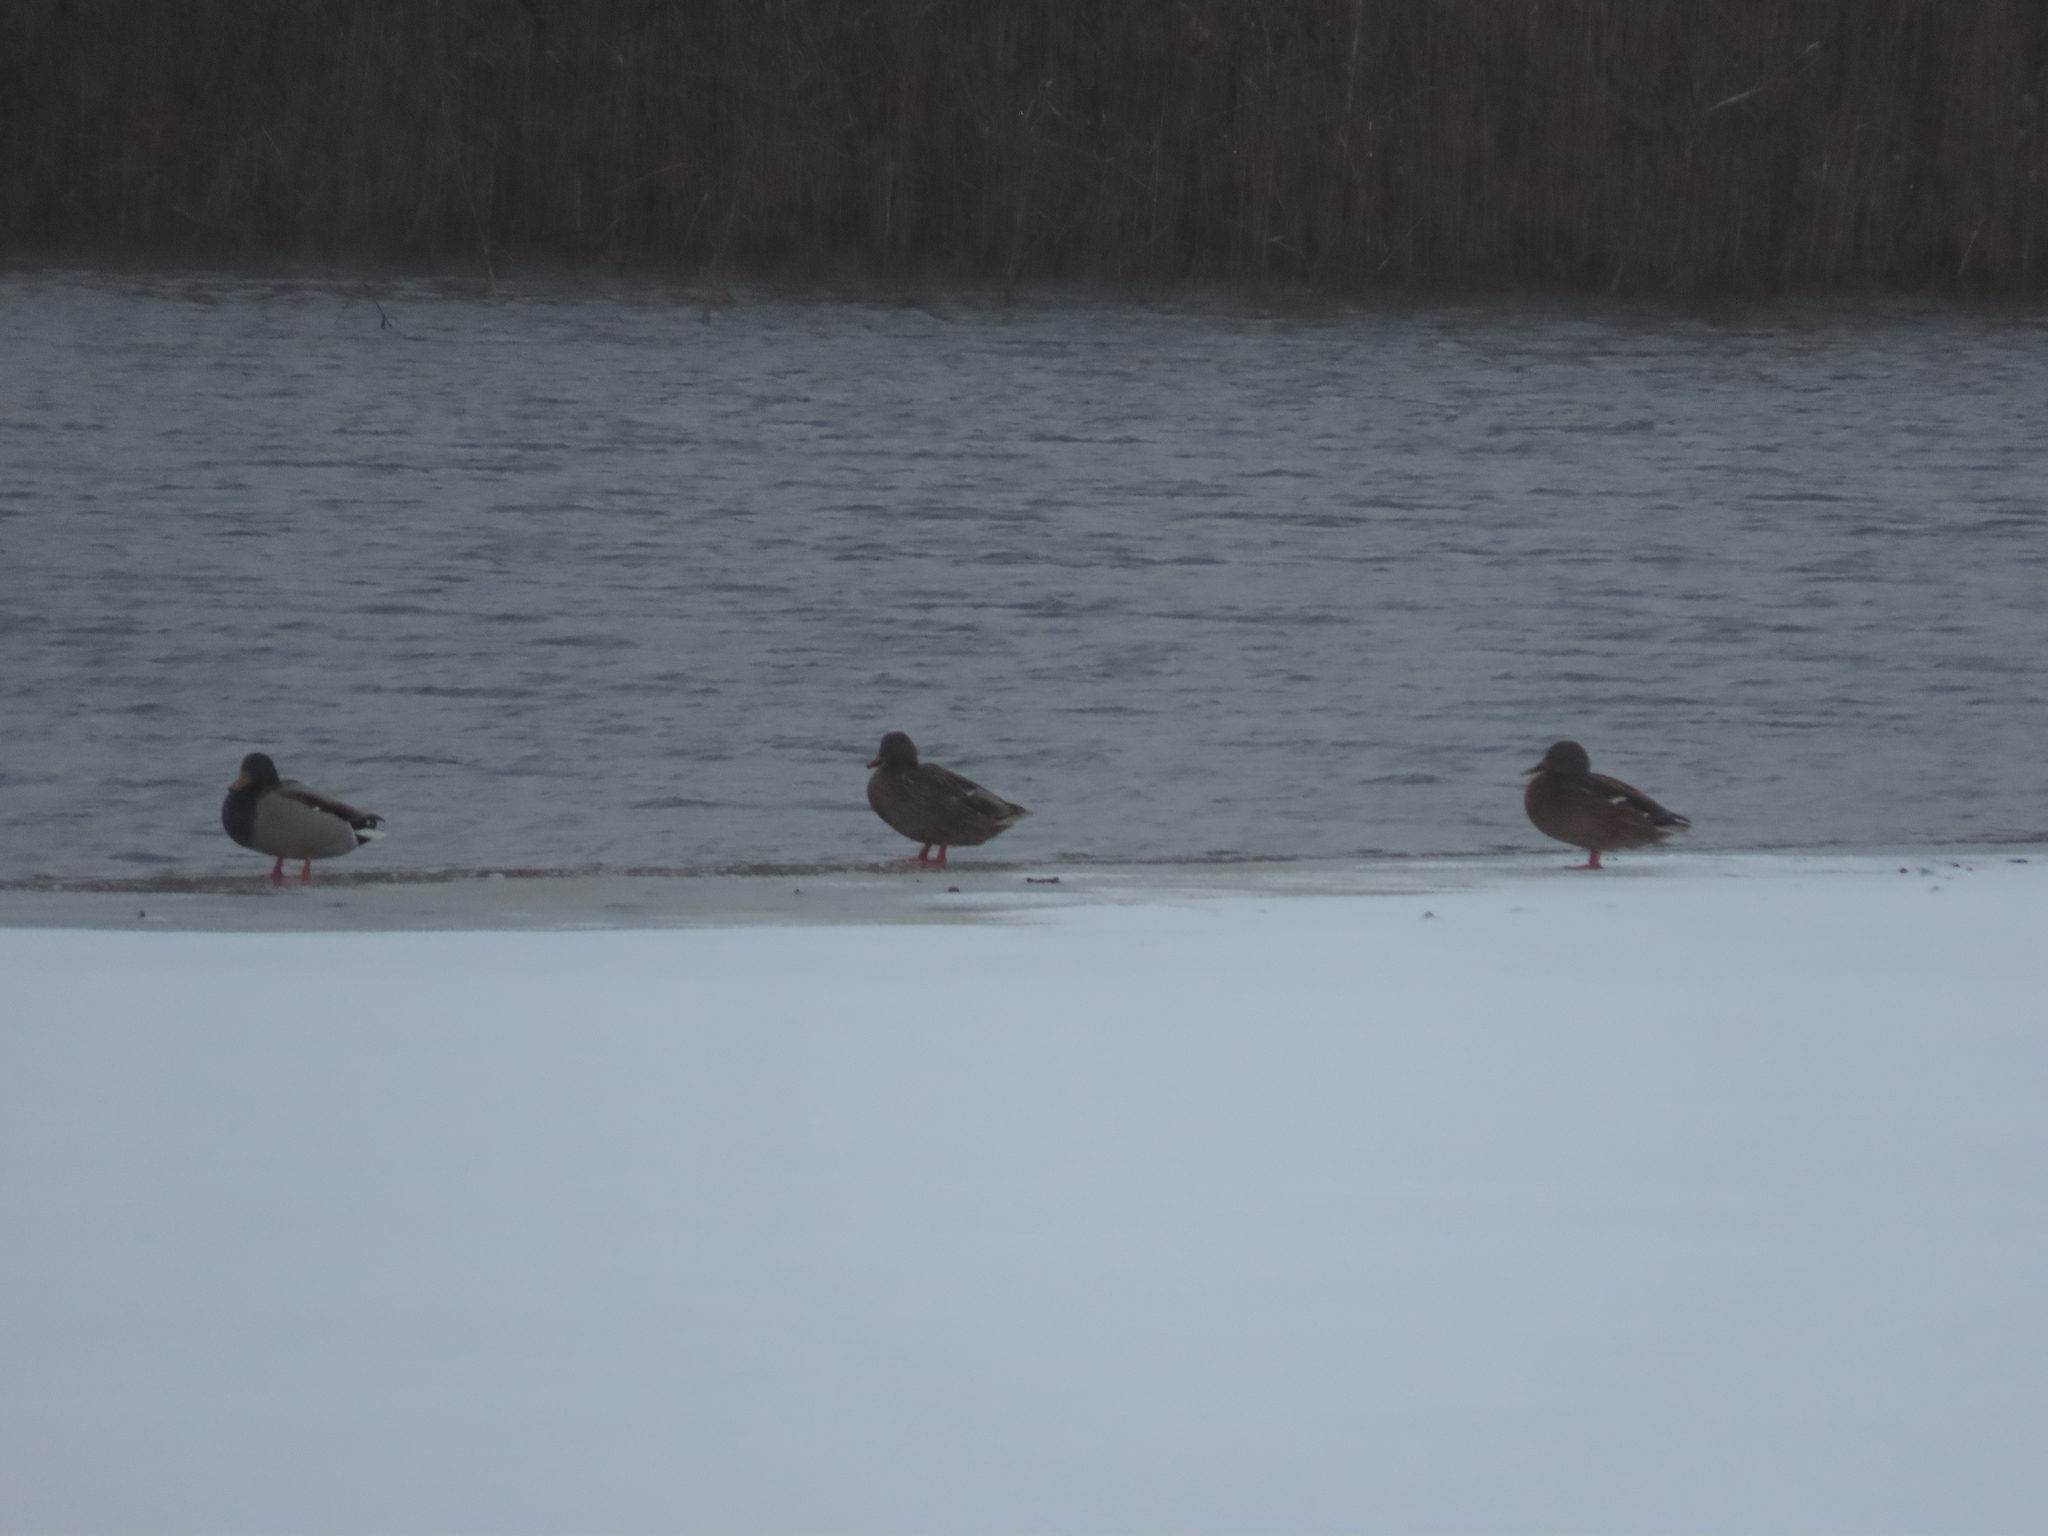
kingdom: Animalia
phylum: Chordata
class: Aves
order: Anseriformes
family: Anatidae
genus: Anas
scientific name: Anas platyrhynchos
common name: Mallard
